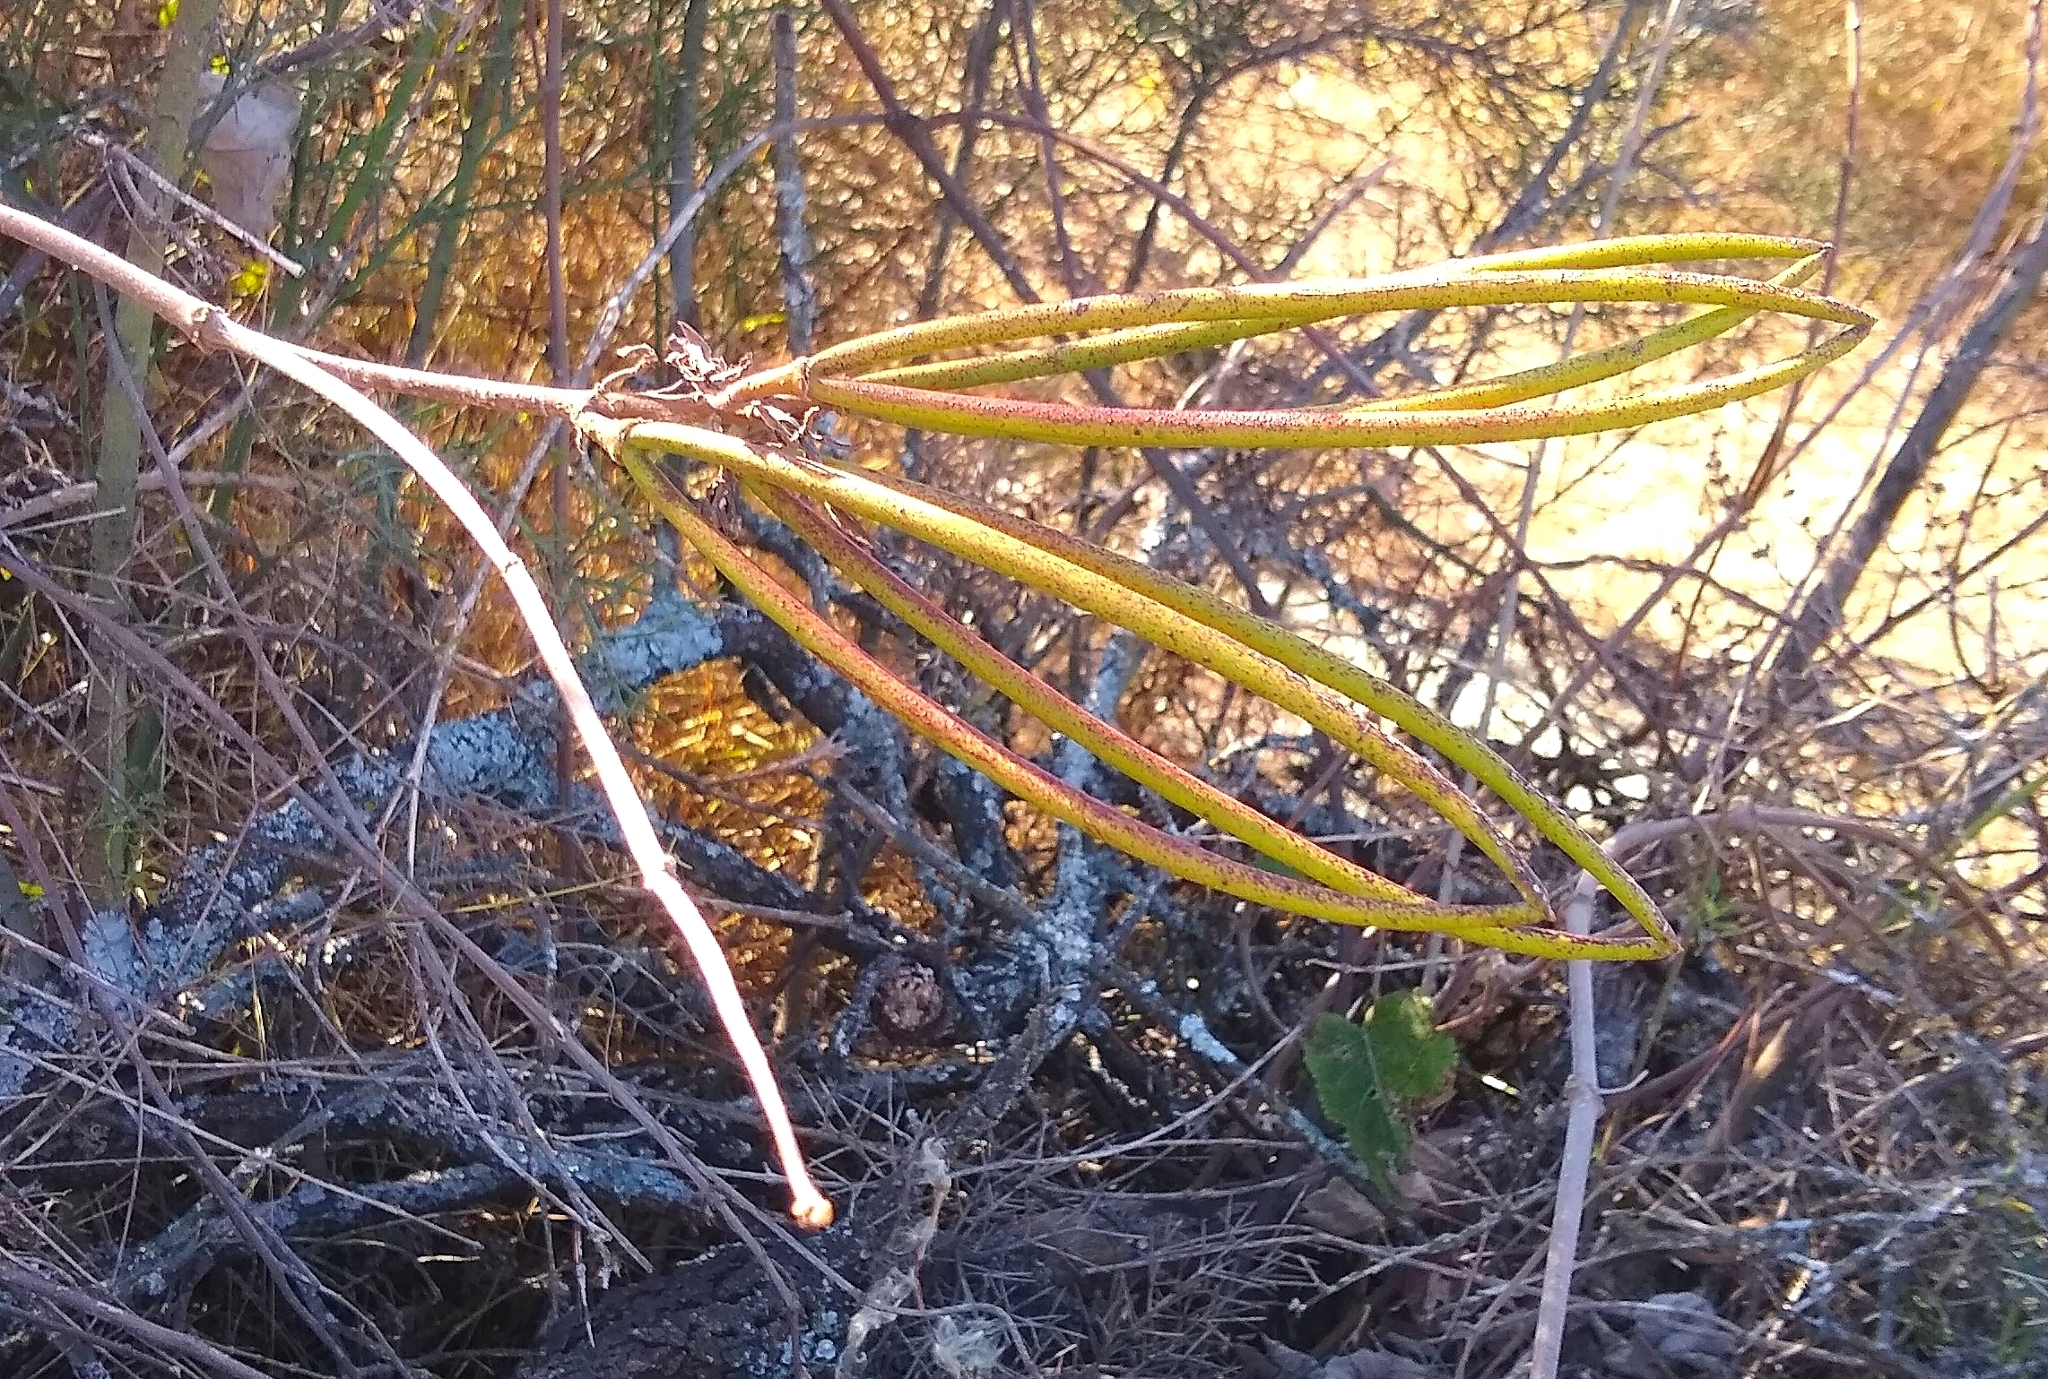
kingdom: Plantae
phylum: Tracheophyta
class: Magnoliopsida
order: Gentianales
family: Apocynaceae
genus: Mandevilla
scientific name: Mandevilla pentlandiana
